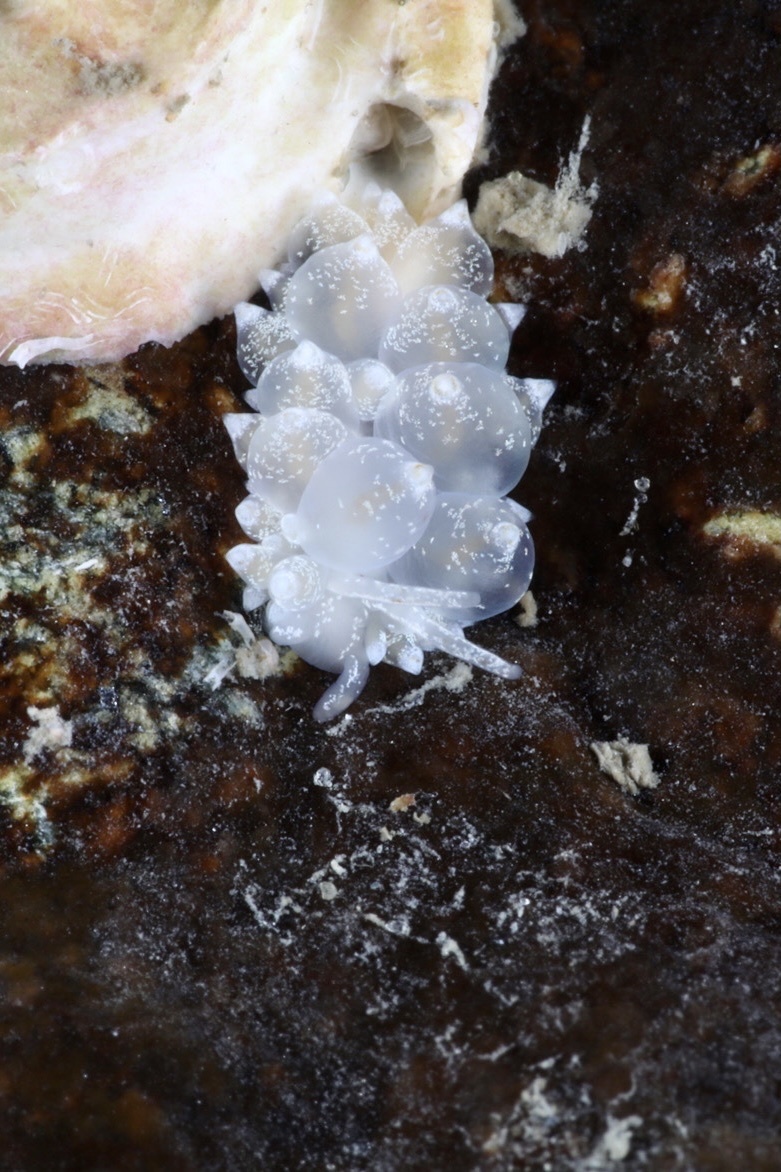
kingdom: Animalia
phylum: Mollusca
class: Gastropoda
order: Nudibranchia
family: Eubranchidae
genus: Amphorina
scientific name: Amphorina pallida
